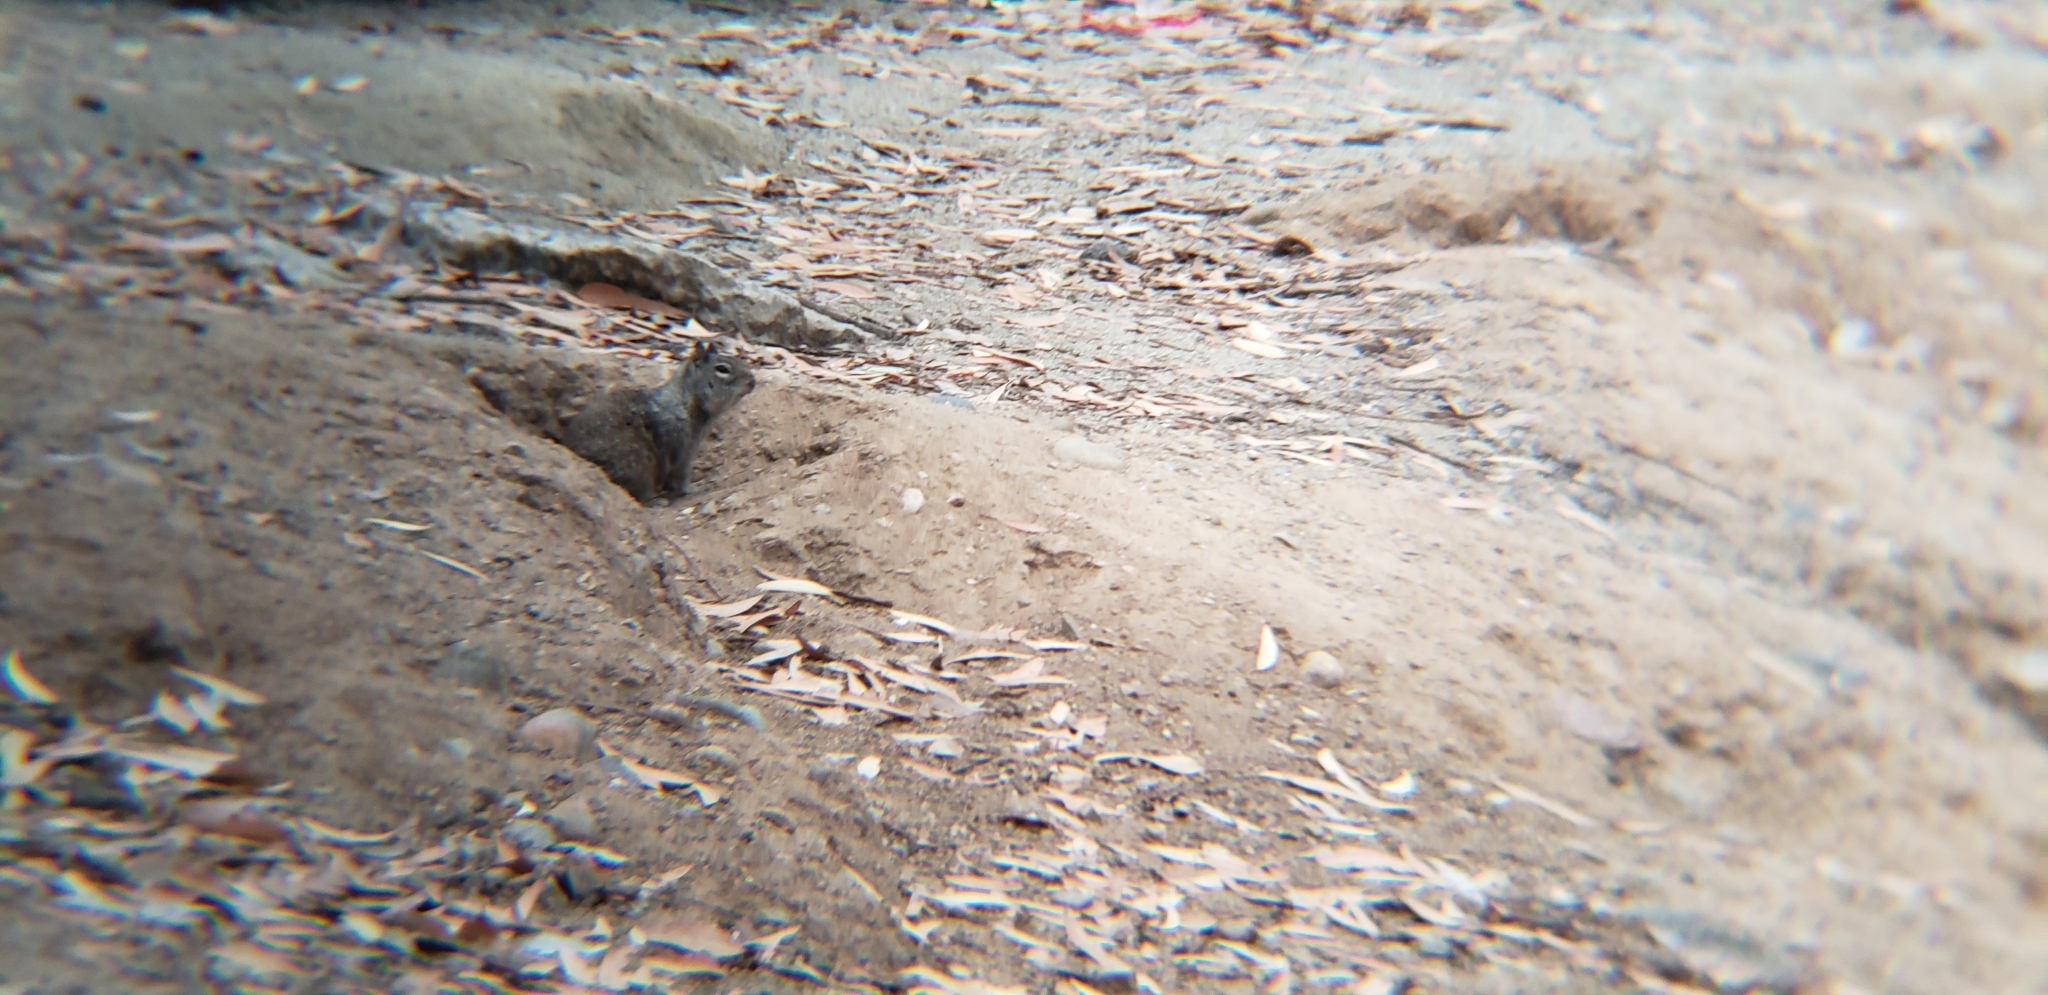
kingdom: Animalia
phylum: Chordata
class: Mammalia
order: Rodentia
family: Sciuridae
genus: Otospermophilus
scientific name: Otospermophilus beecheyi
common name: California ground squirrel
